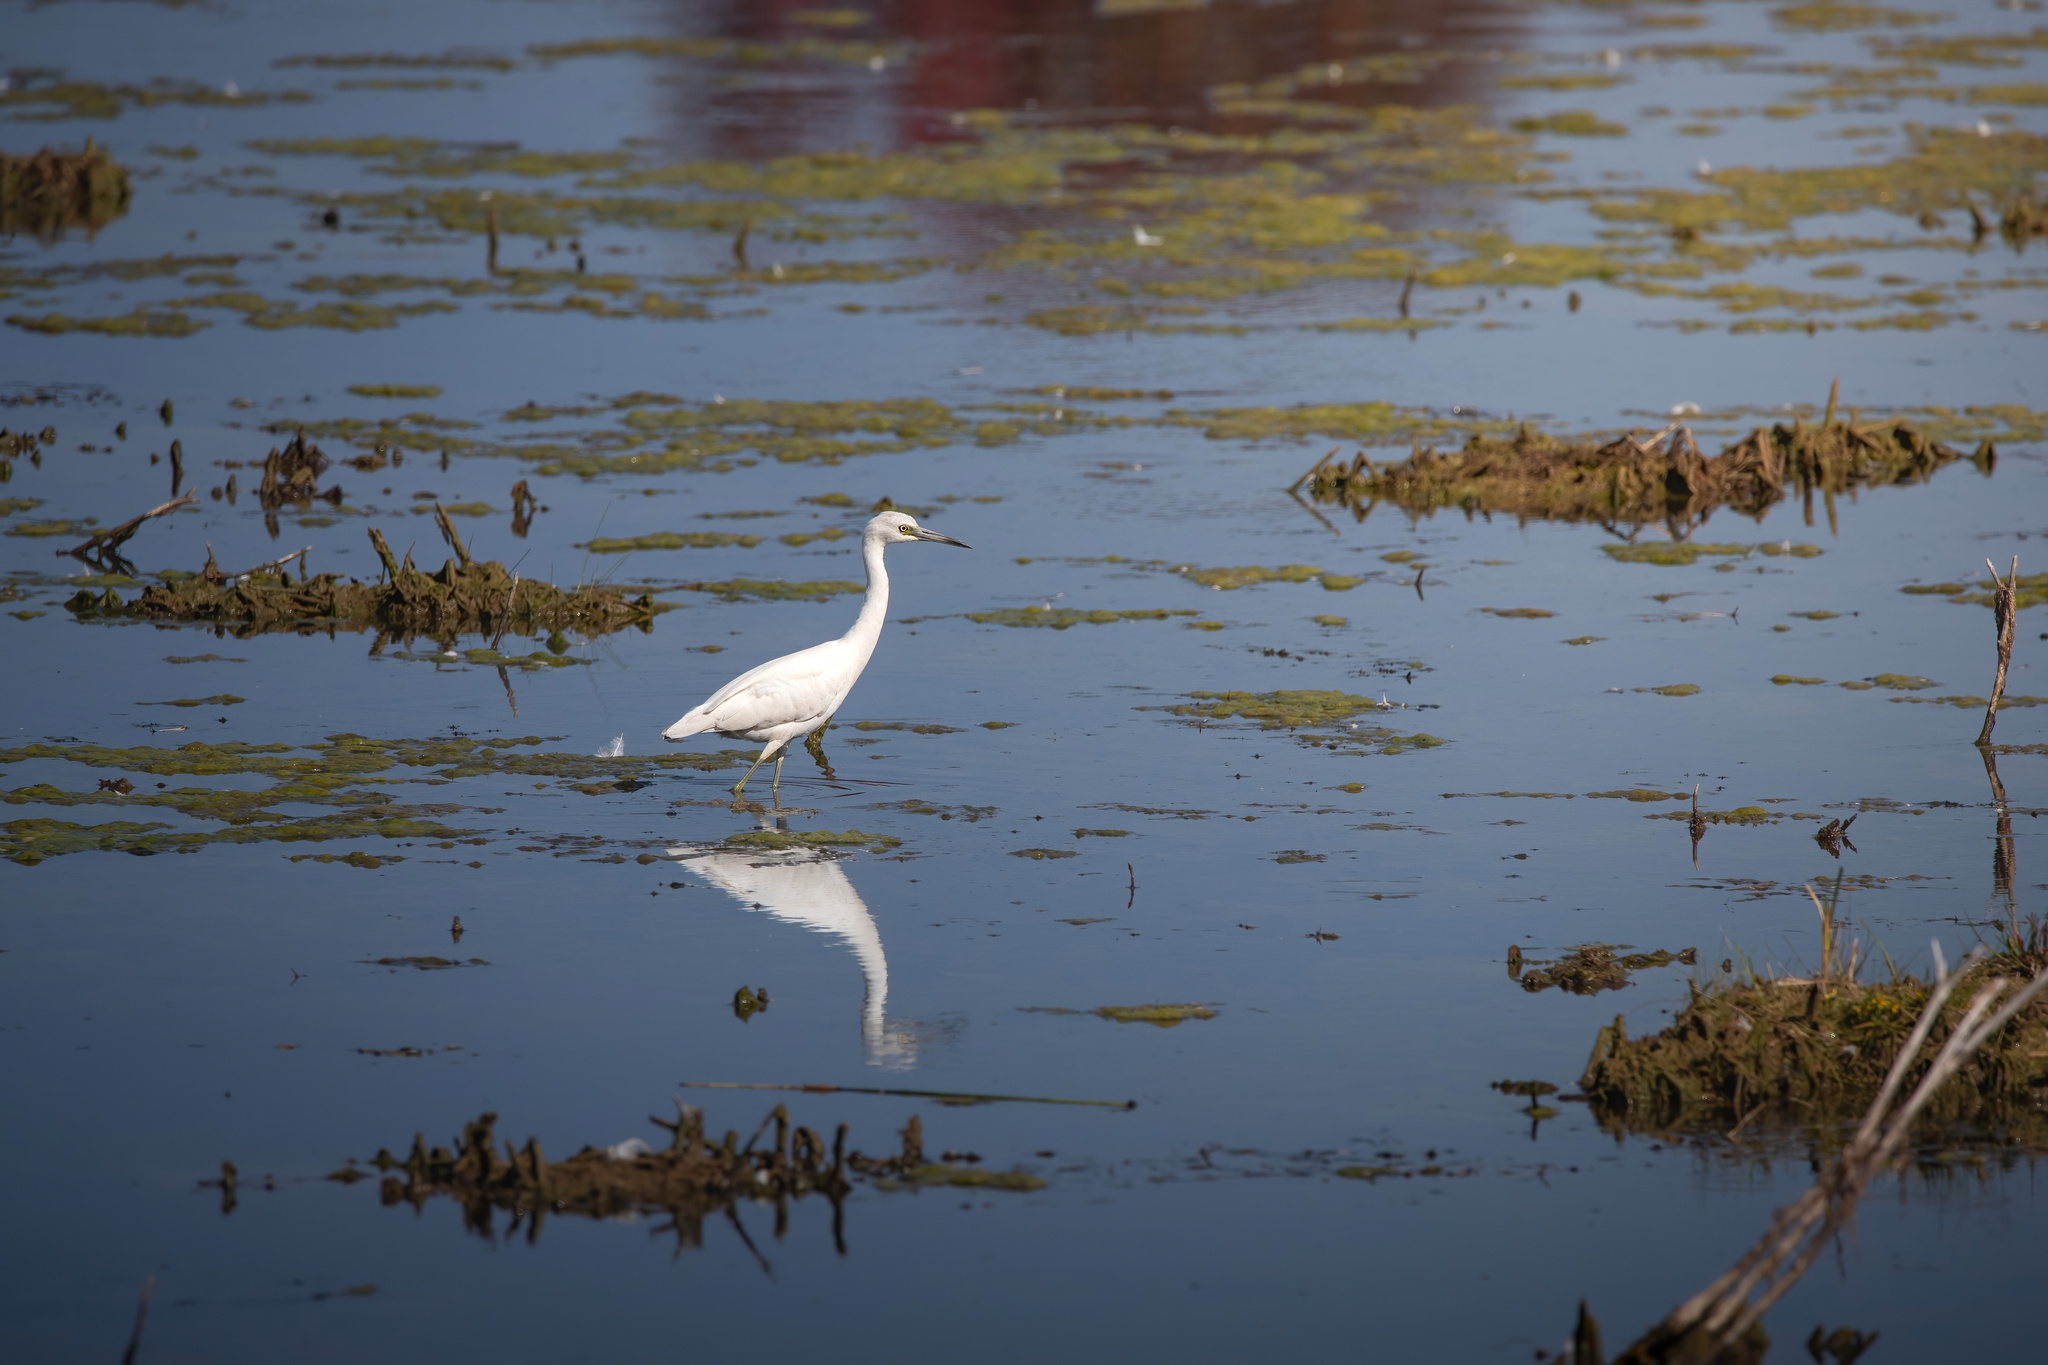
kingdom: Animalia
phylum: Chordata
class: Aves
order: Pelecaniformes
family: Ardeidae
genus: Egretta
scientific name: Egretta caerulea
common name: Little blue heron
